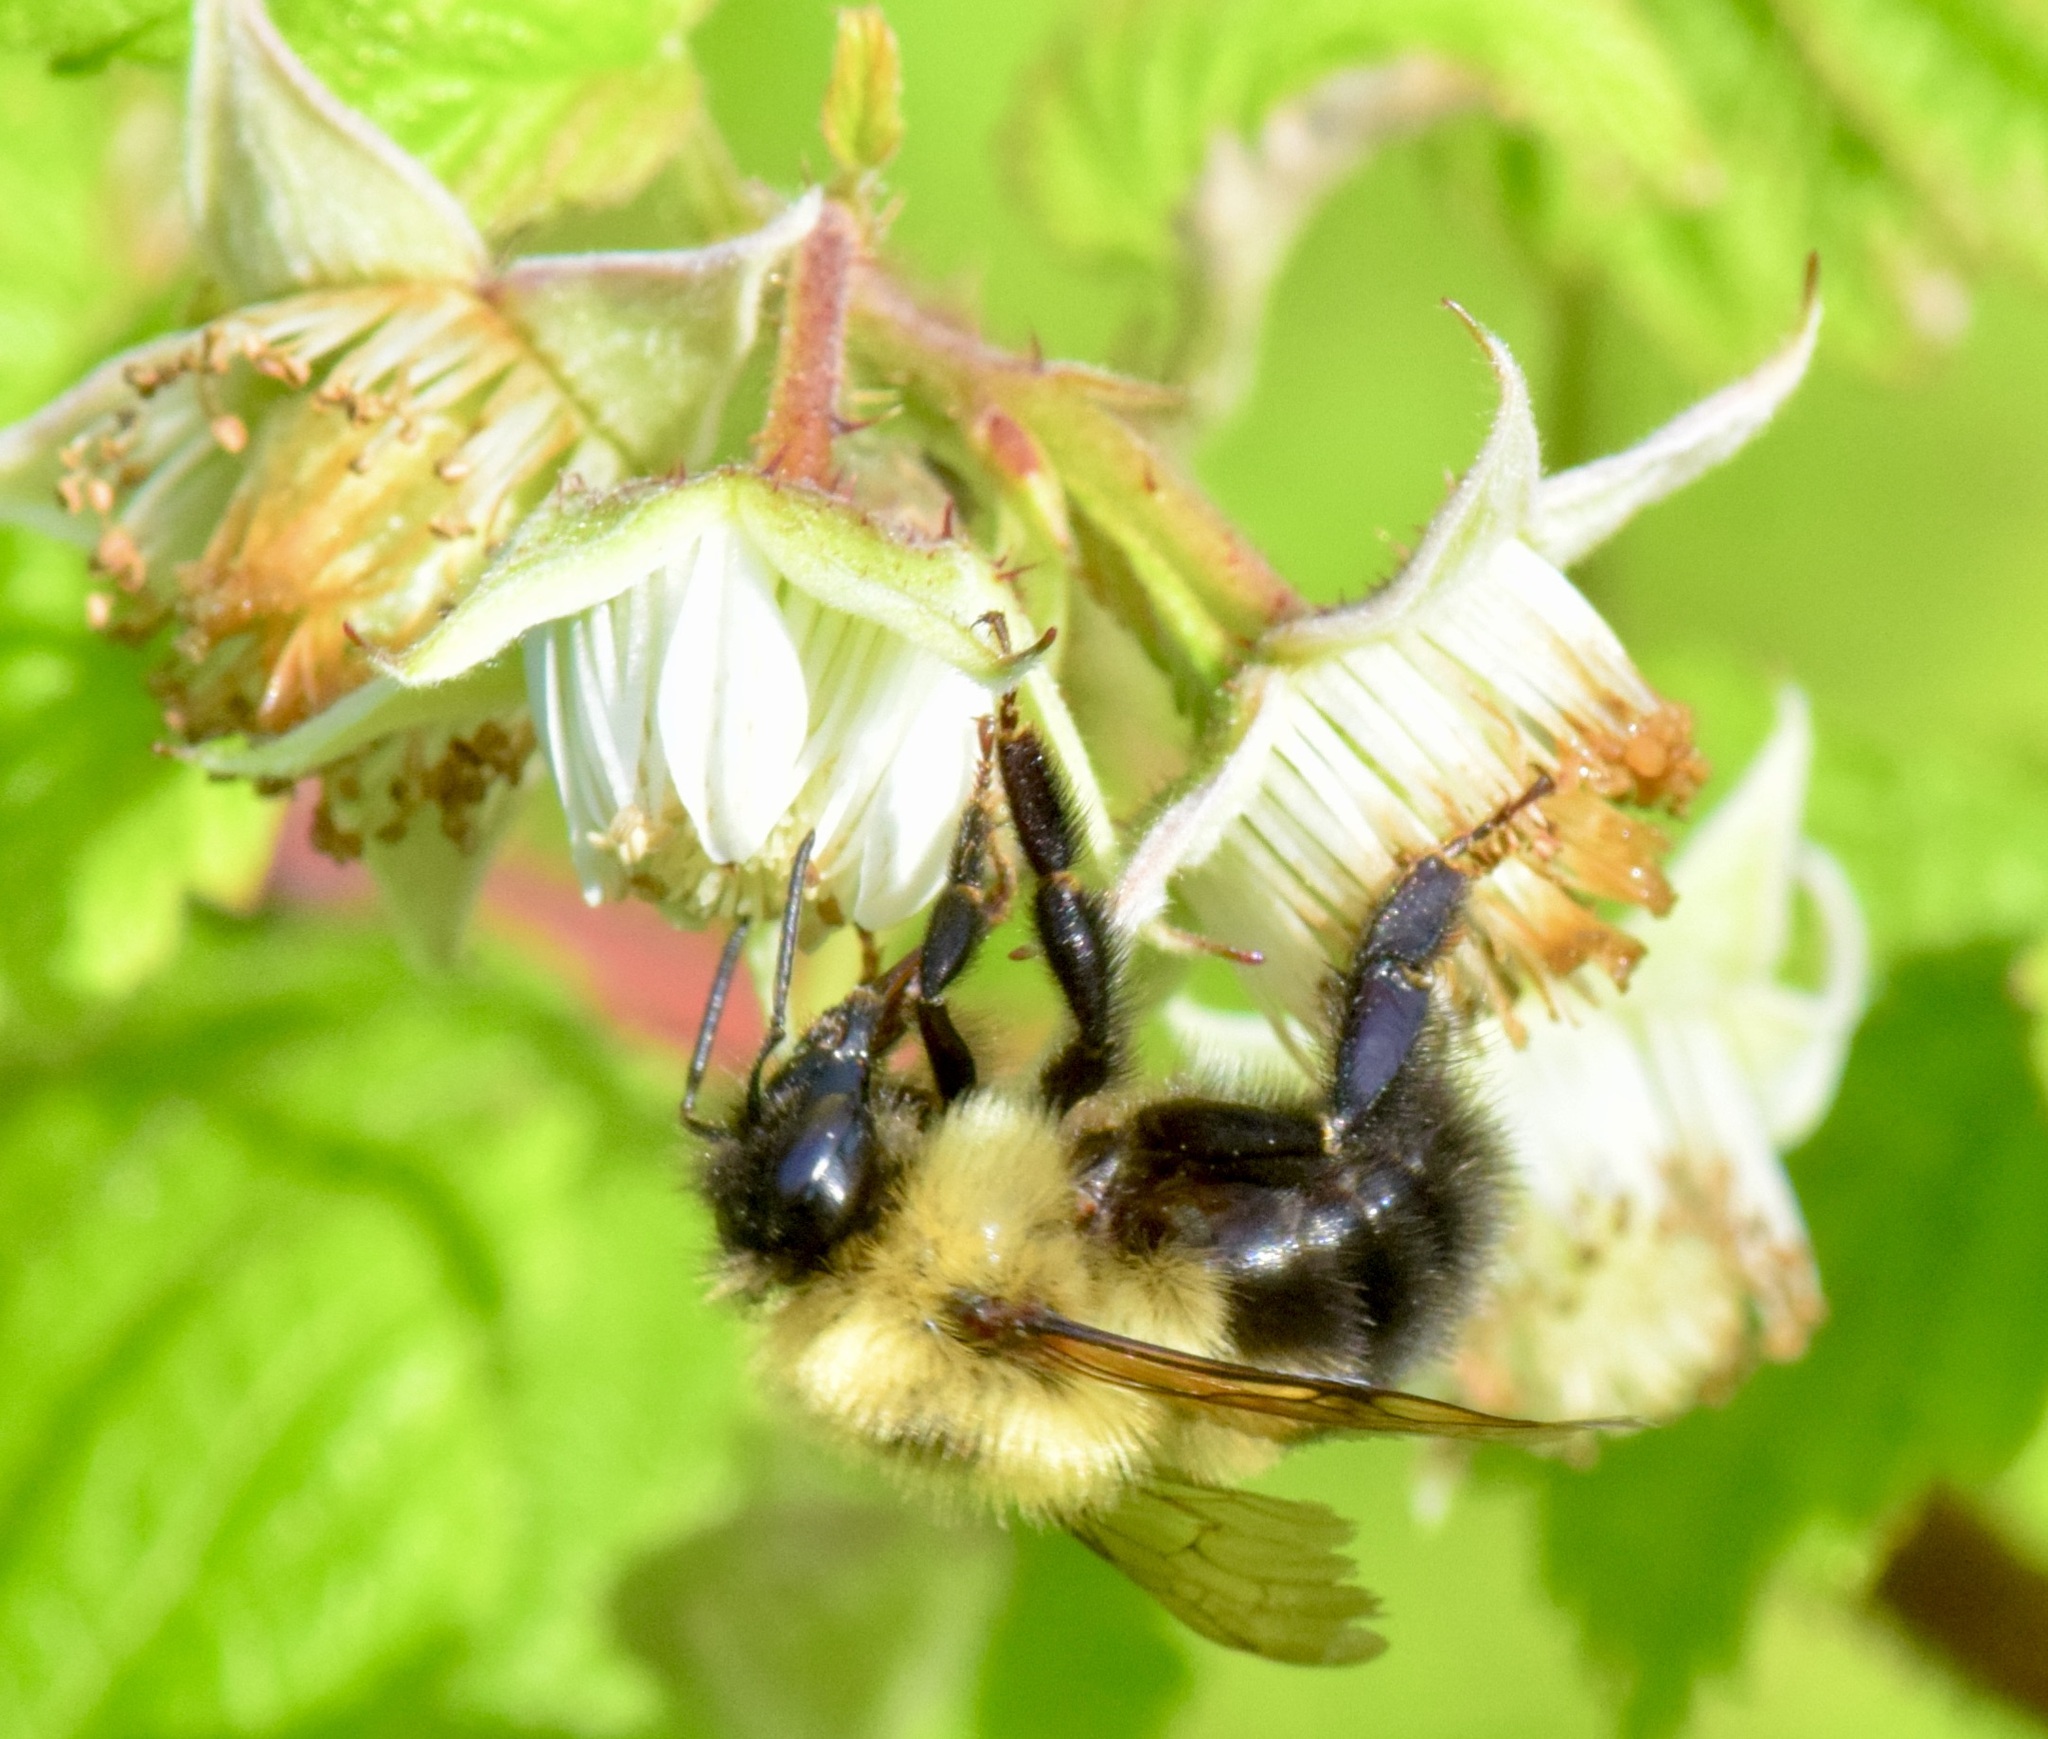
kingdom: Animalia
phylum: Arthropoda
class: Insecta
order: Hymenoptera
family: Apidae
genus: Bombus
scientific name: Bombus bimaculatus
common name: Two-spotted bumble bee
